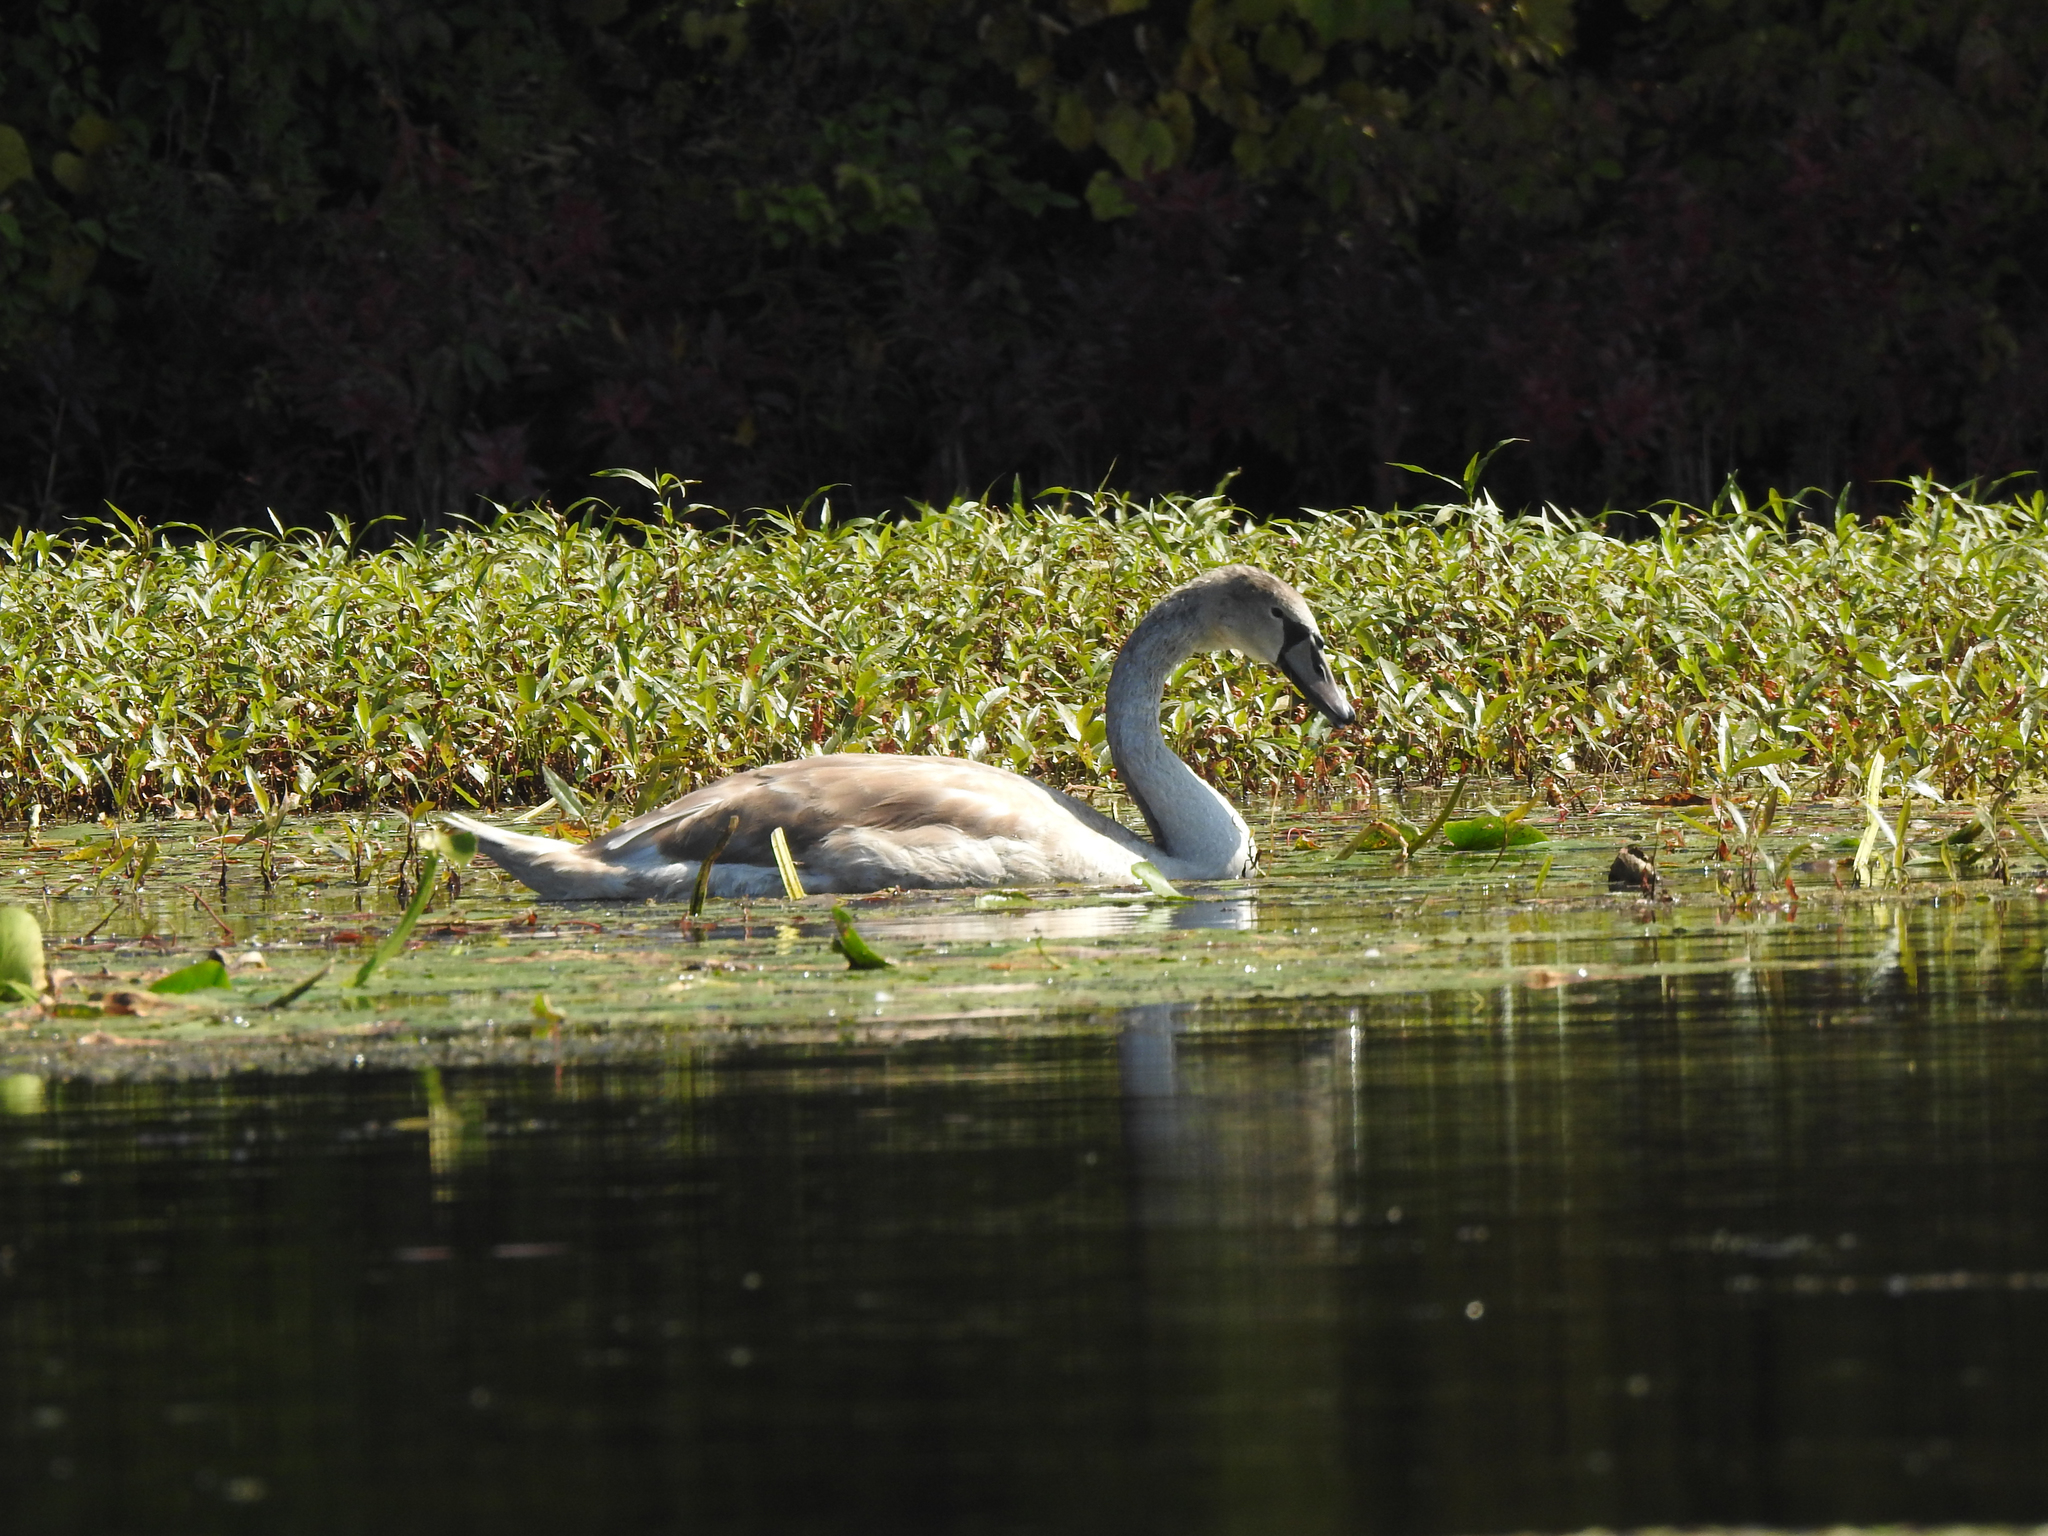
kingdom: Animalia
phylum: Chordata
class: Aves
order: Anseriformes
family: Anatidae
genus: Cygnus
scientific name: Cygnus olor
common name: Mute swan
